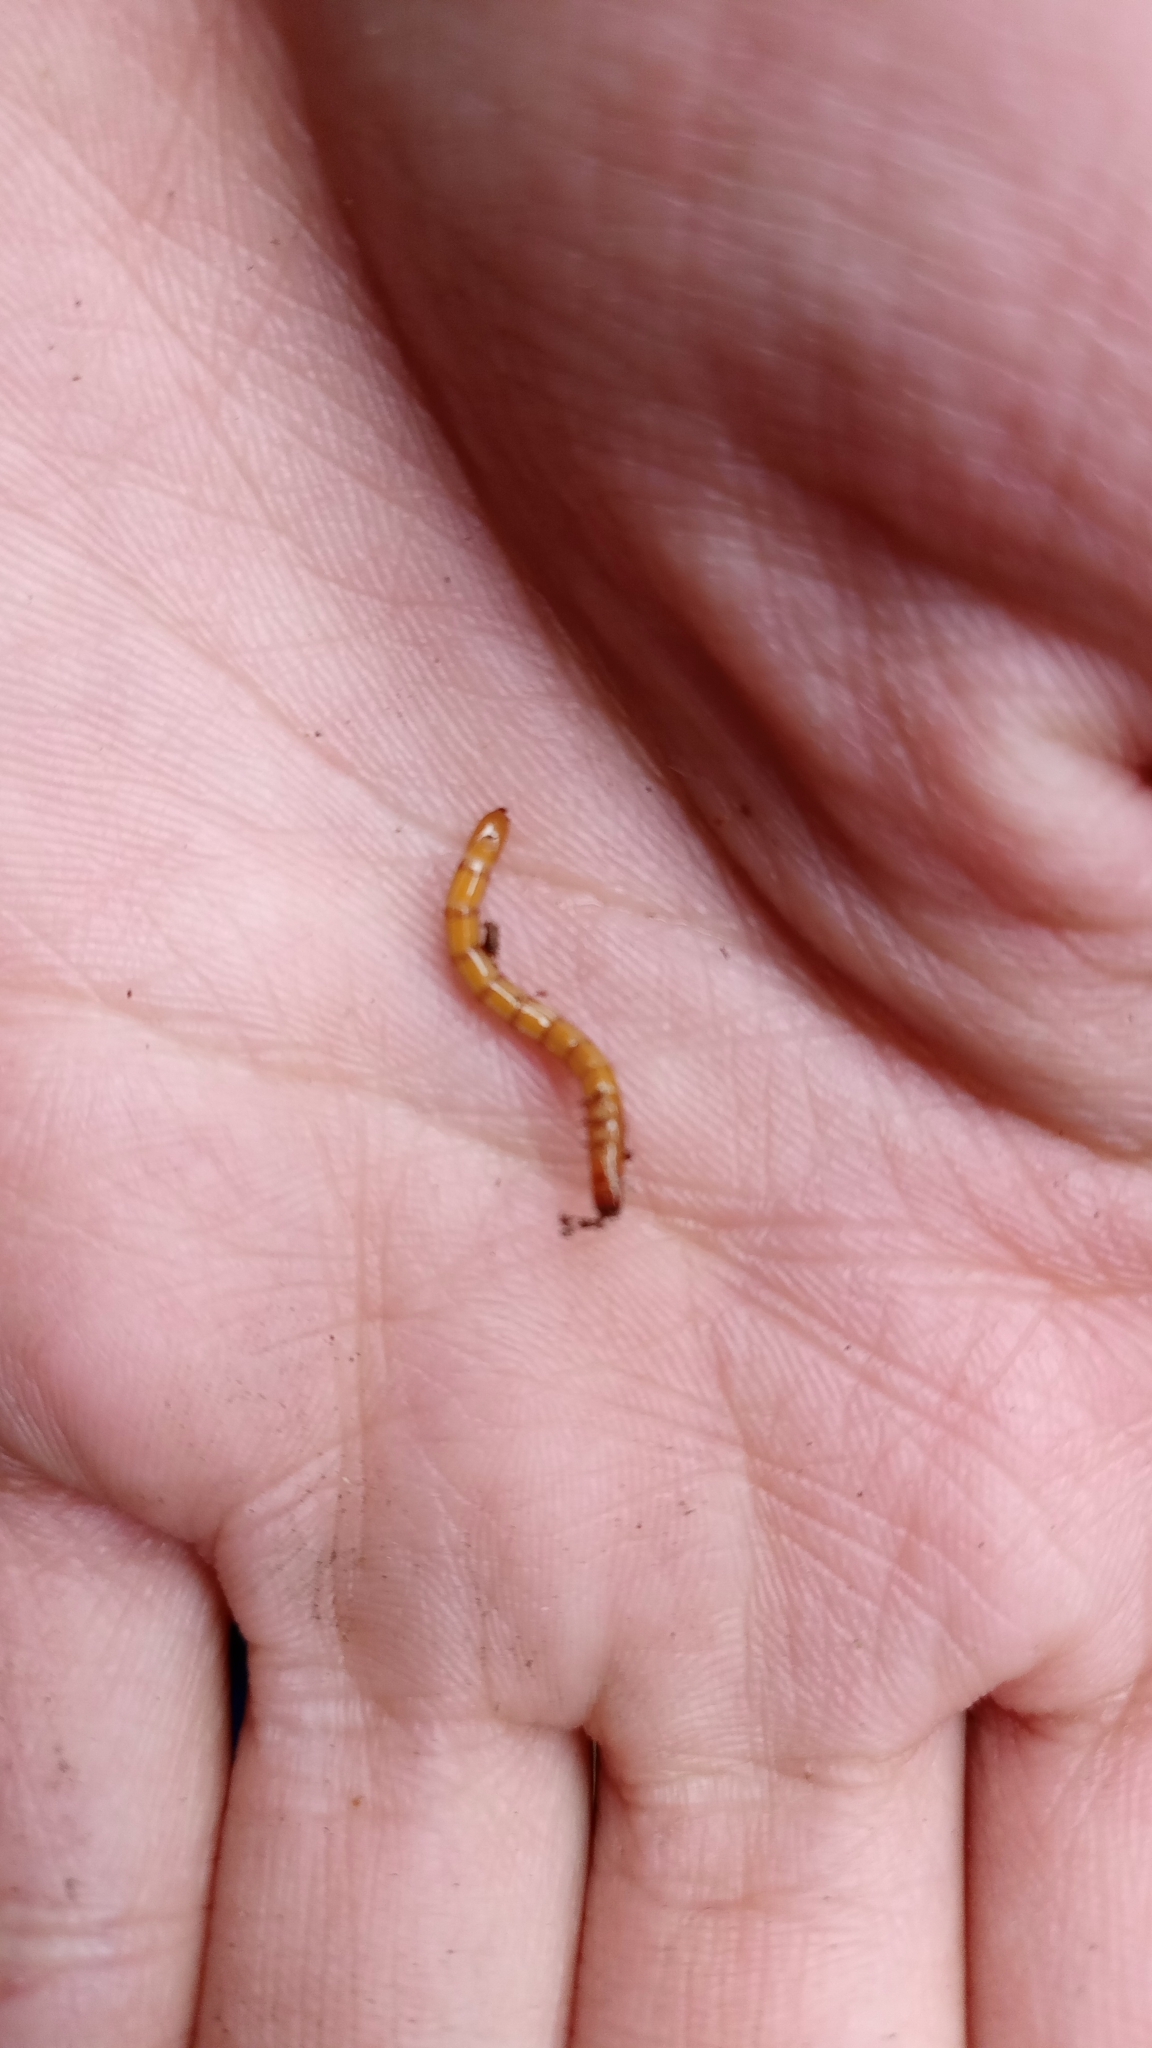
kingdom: Animalia
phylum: Arthropoda
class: Insecta
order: Coleoptera
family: Tenebrionidae
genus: Tenebrio
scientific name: Tenebrio molitor
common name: Hardback beetle
